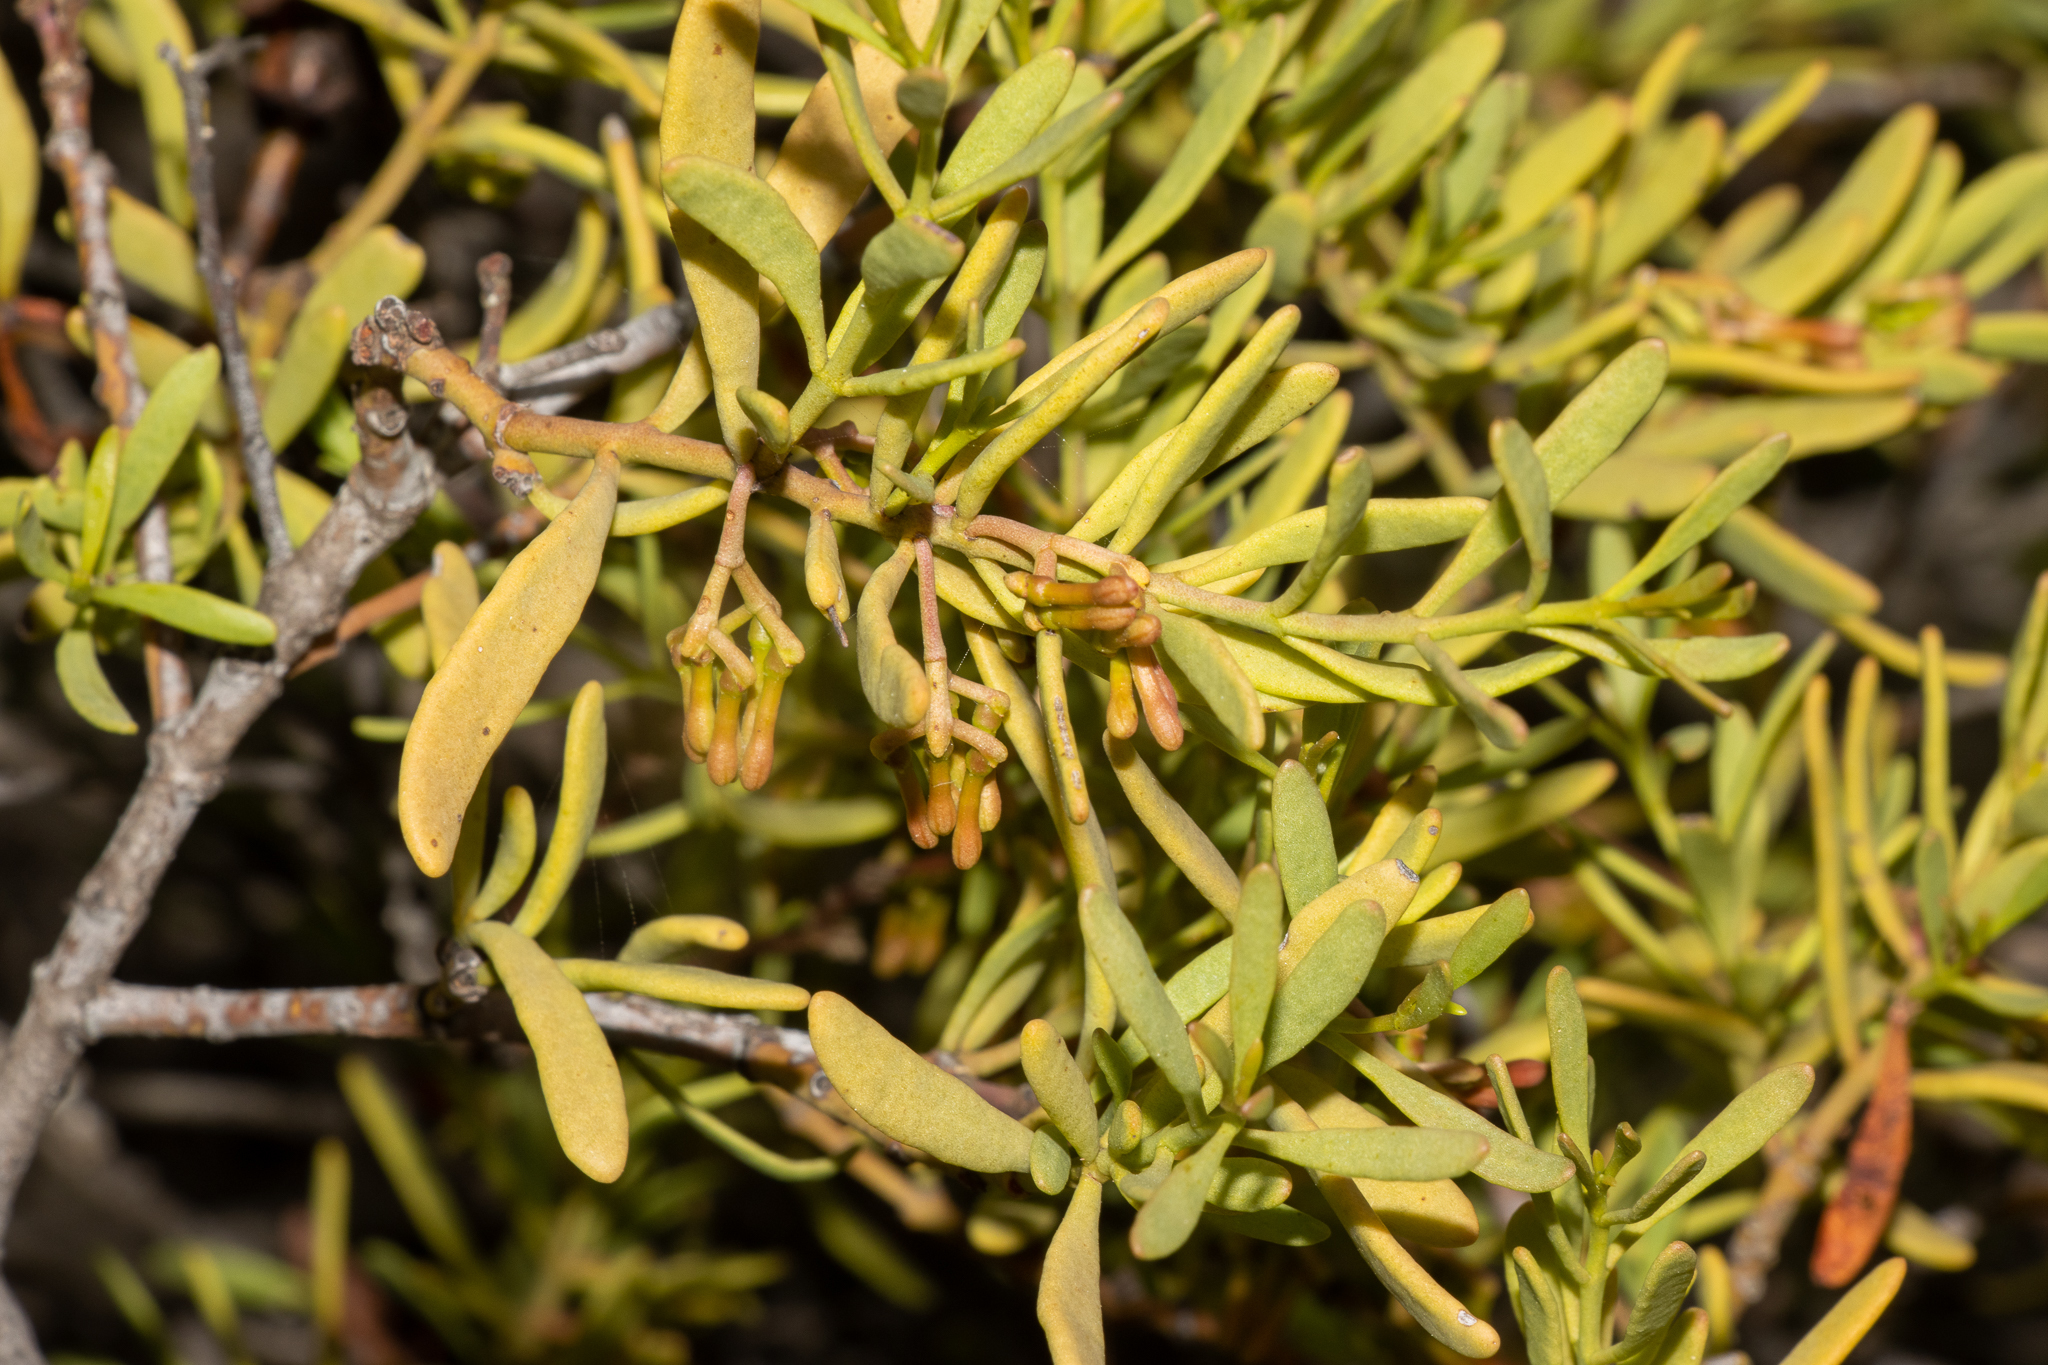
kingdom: Plantae
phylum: Tracheophyta
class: Magnoliopsida
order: Santalales
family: Loranthaceae
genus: Amyema
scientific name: Amyema melaleucae
